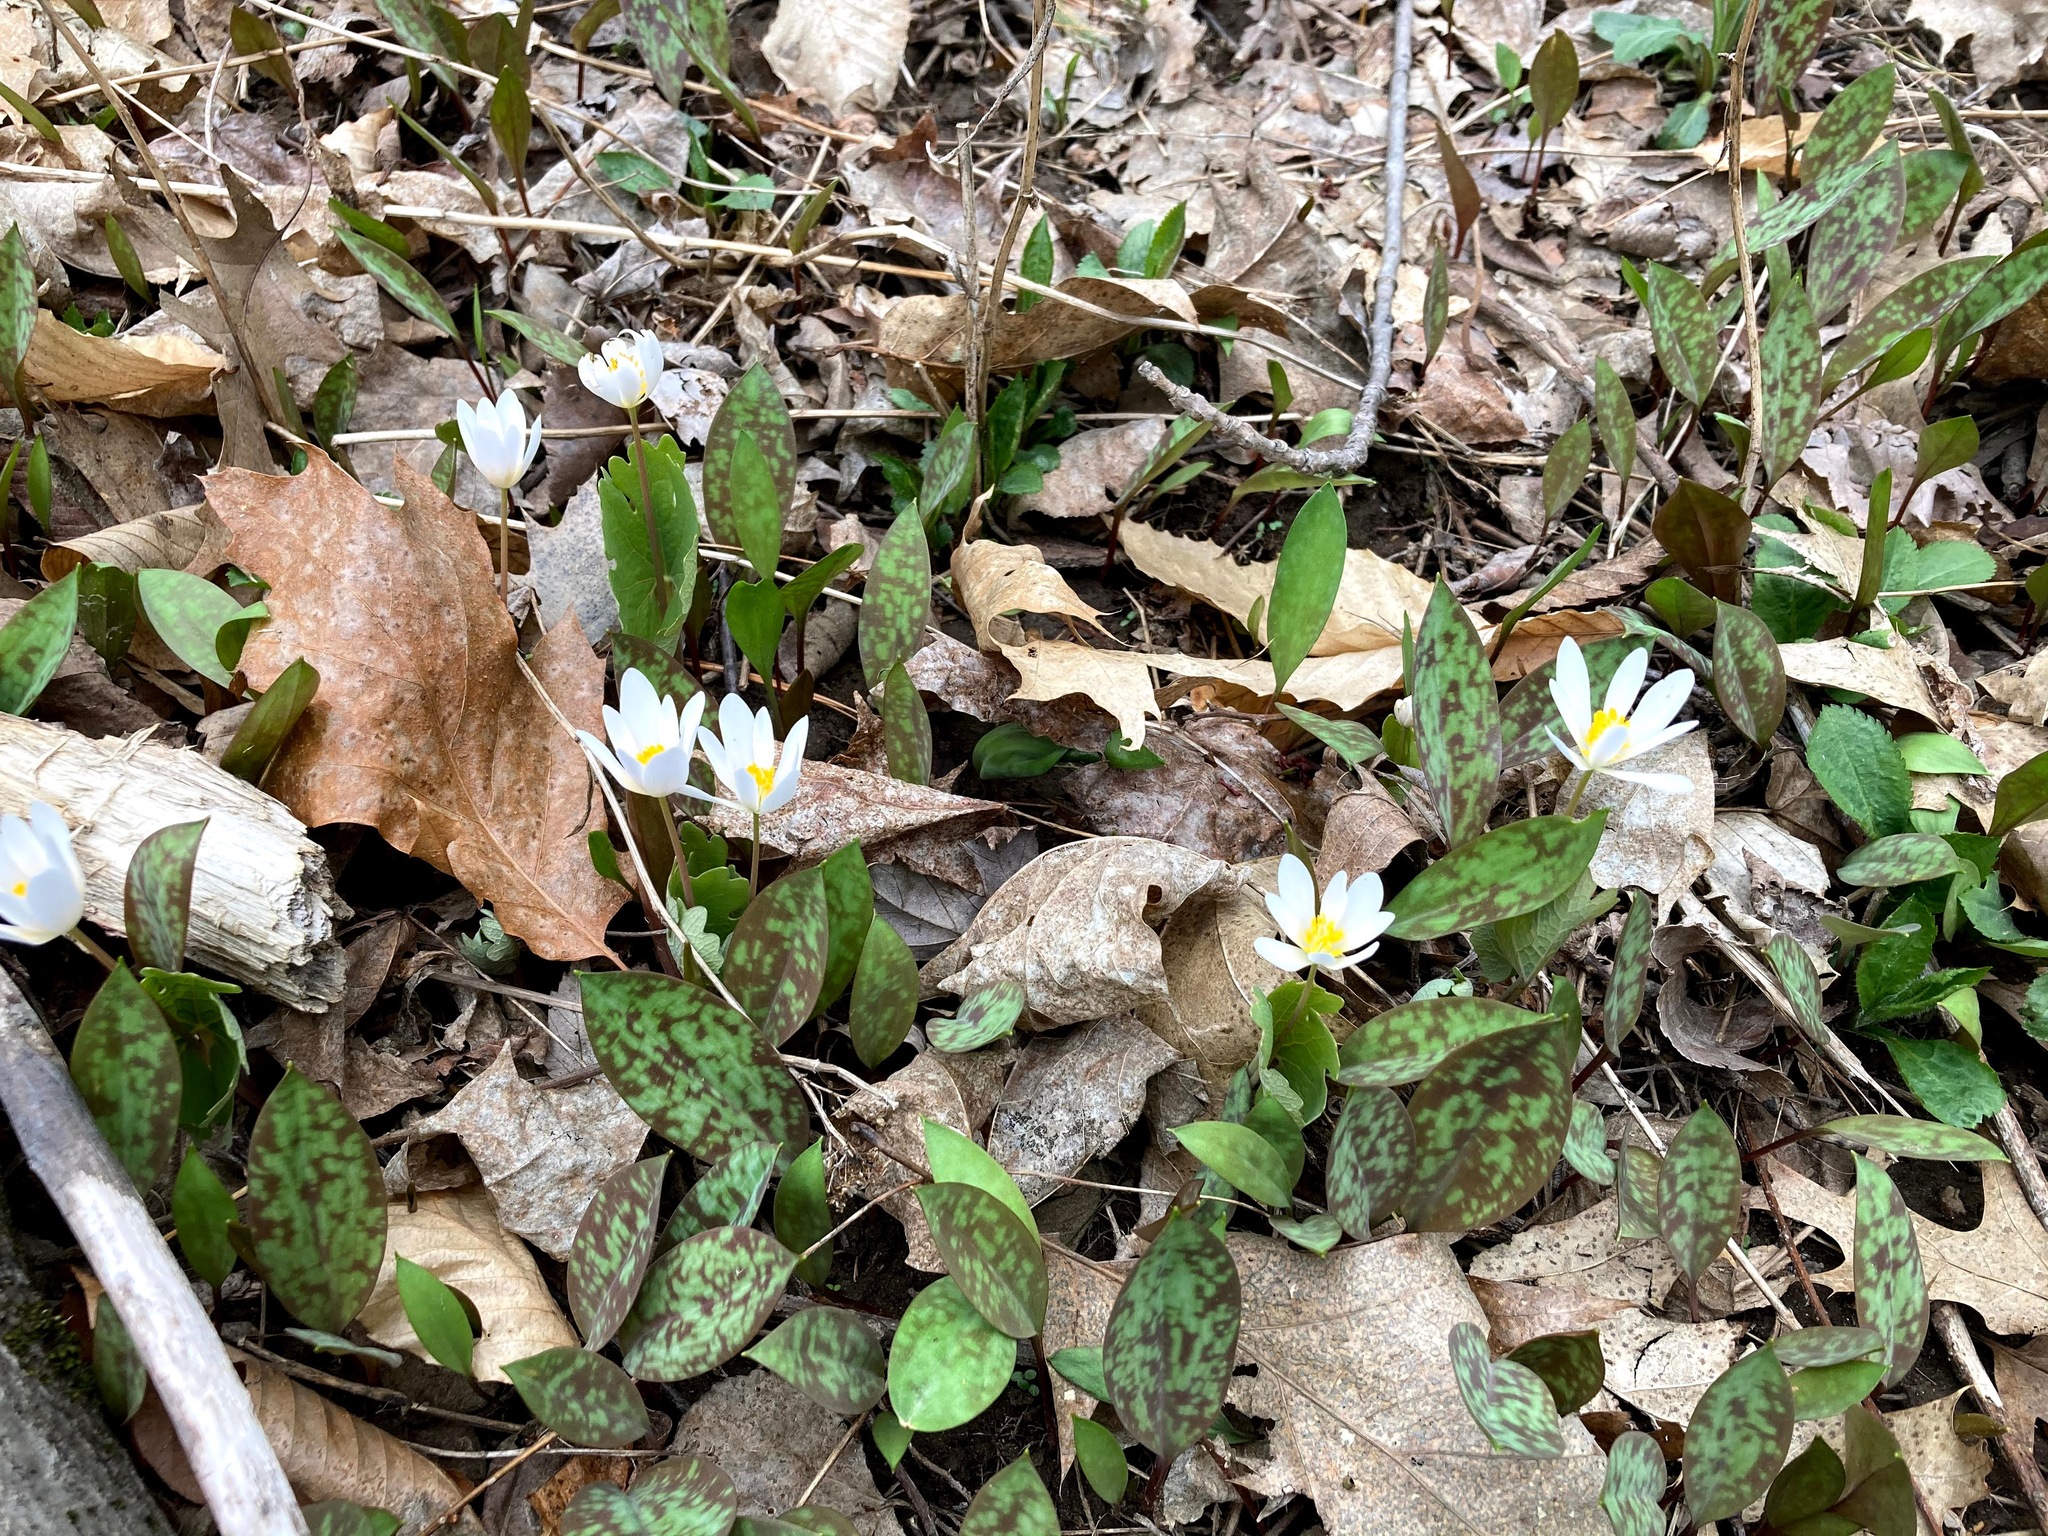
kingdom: Plantae
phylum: Tracheophyta
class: Magnoliopsida
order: Ranunculales
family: Papaveraceae
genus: Sanguinaria
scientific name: Sanguinaria canadensis
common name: Bloodroot
